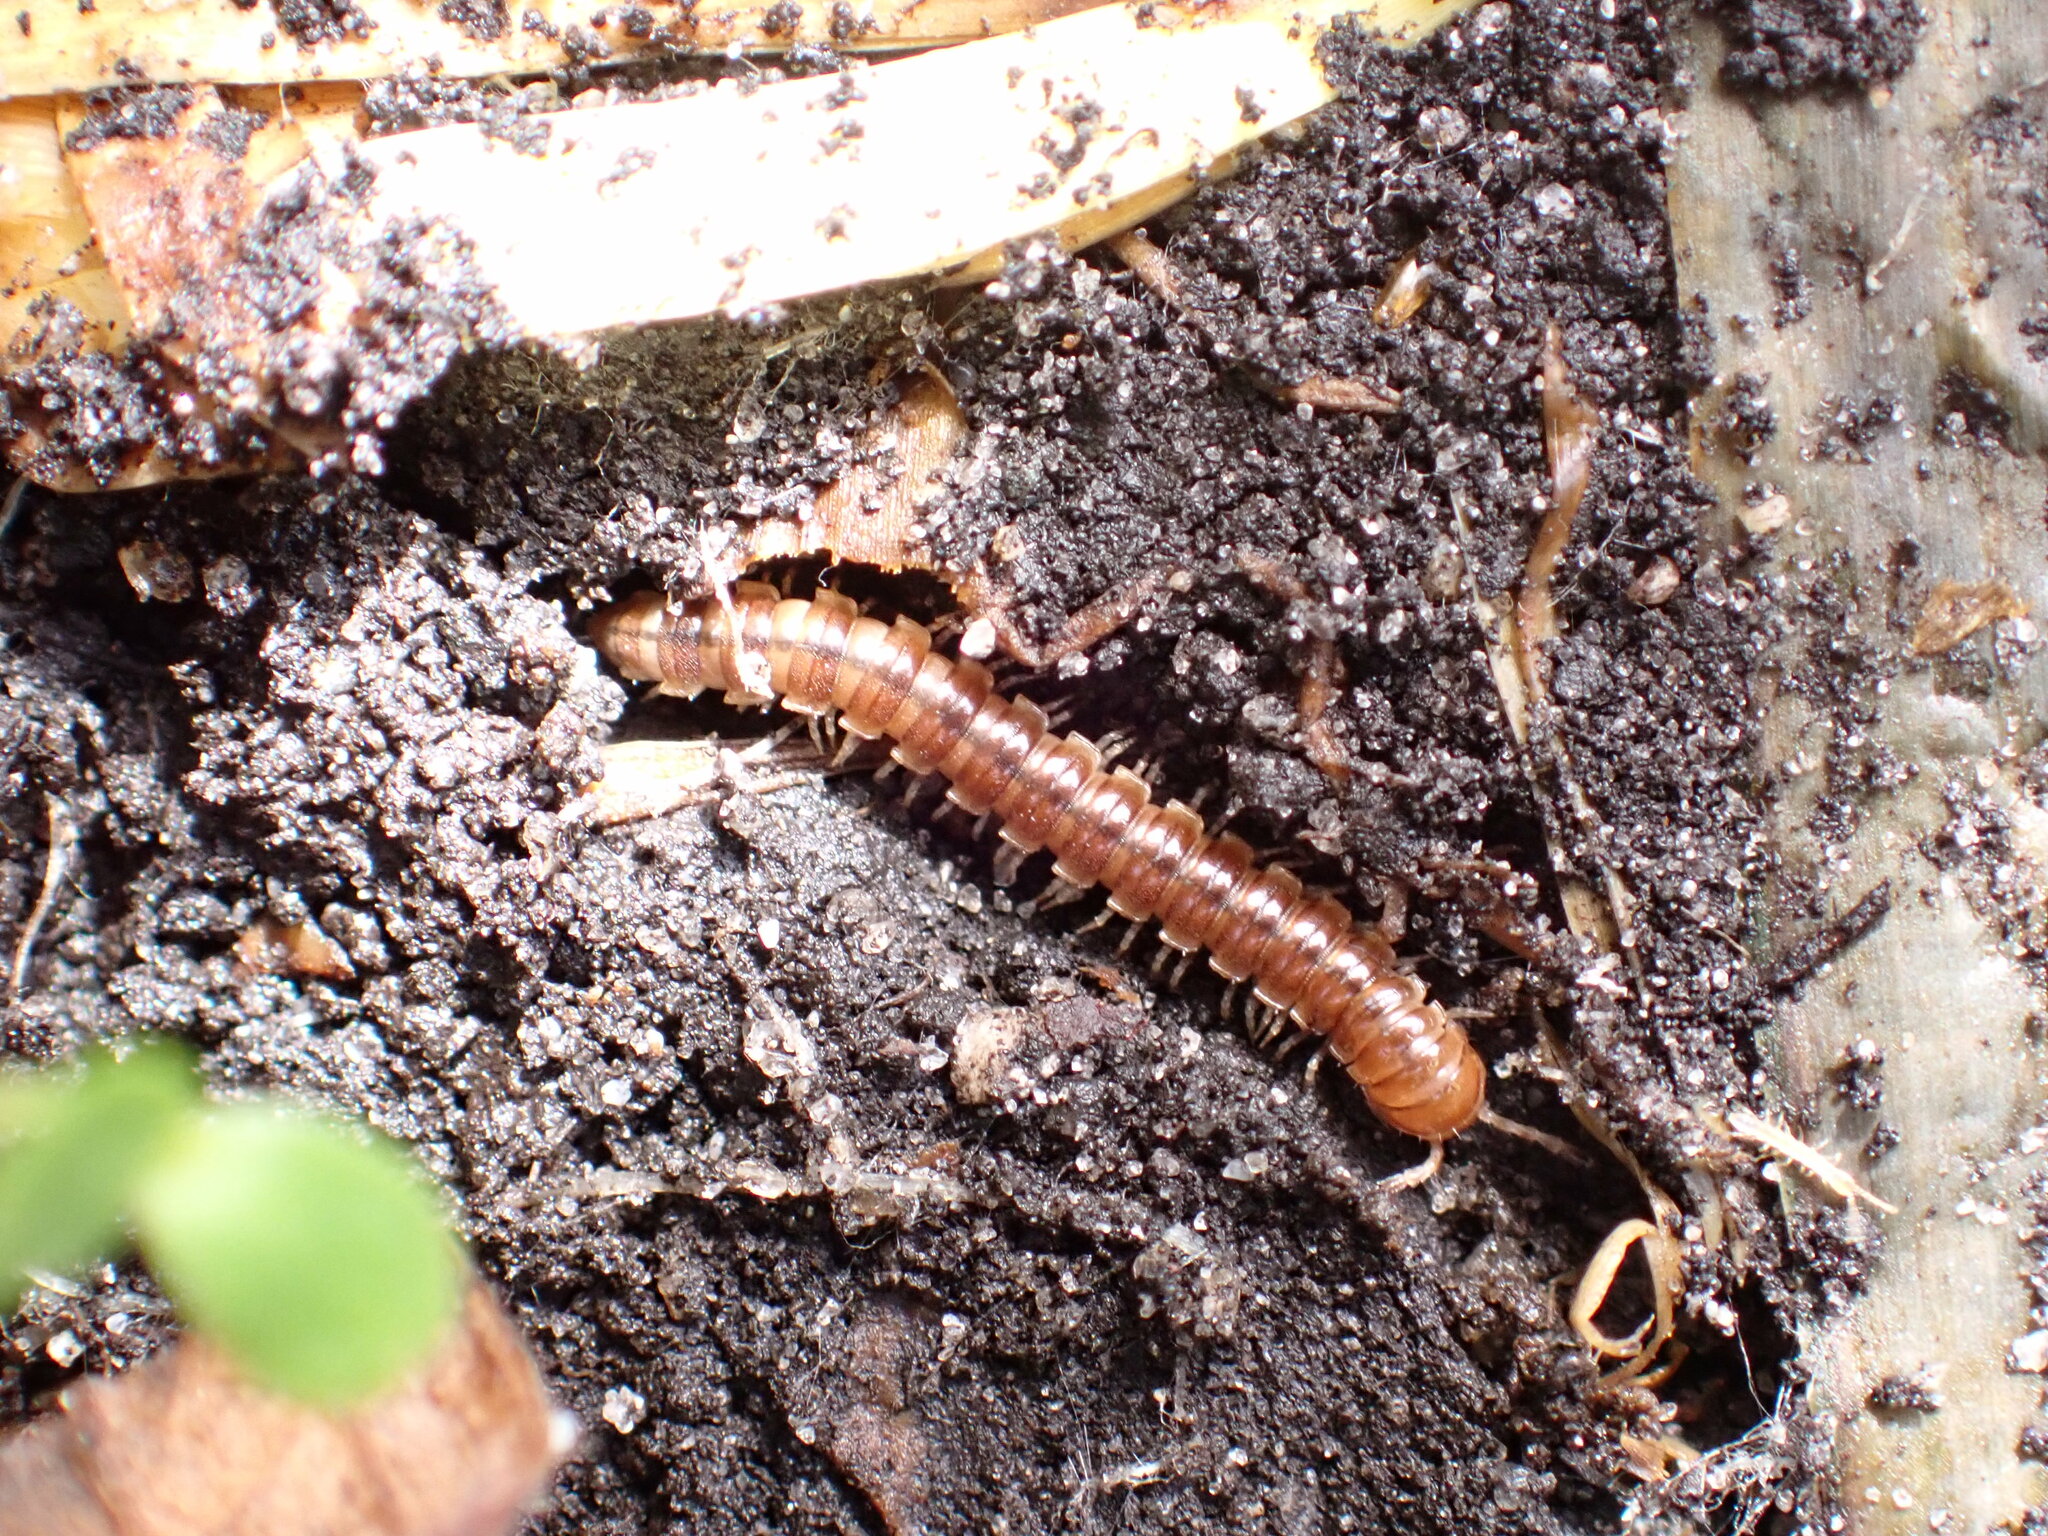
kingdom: Animalia
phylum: Arthropoda
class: Diplopoda
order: Polydesmida
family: Paradoxosomatidae
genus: Oxidus
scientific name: Oxidus gracilis
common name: Greenhouse millipede
